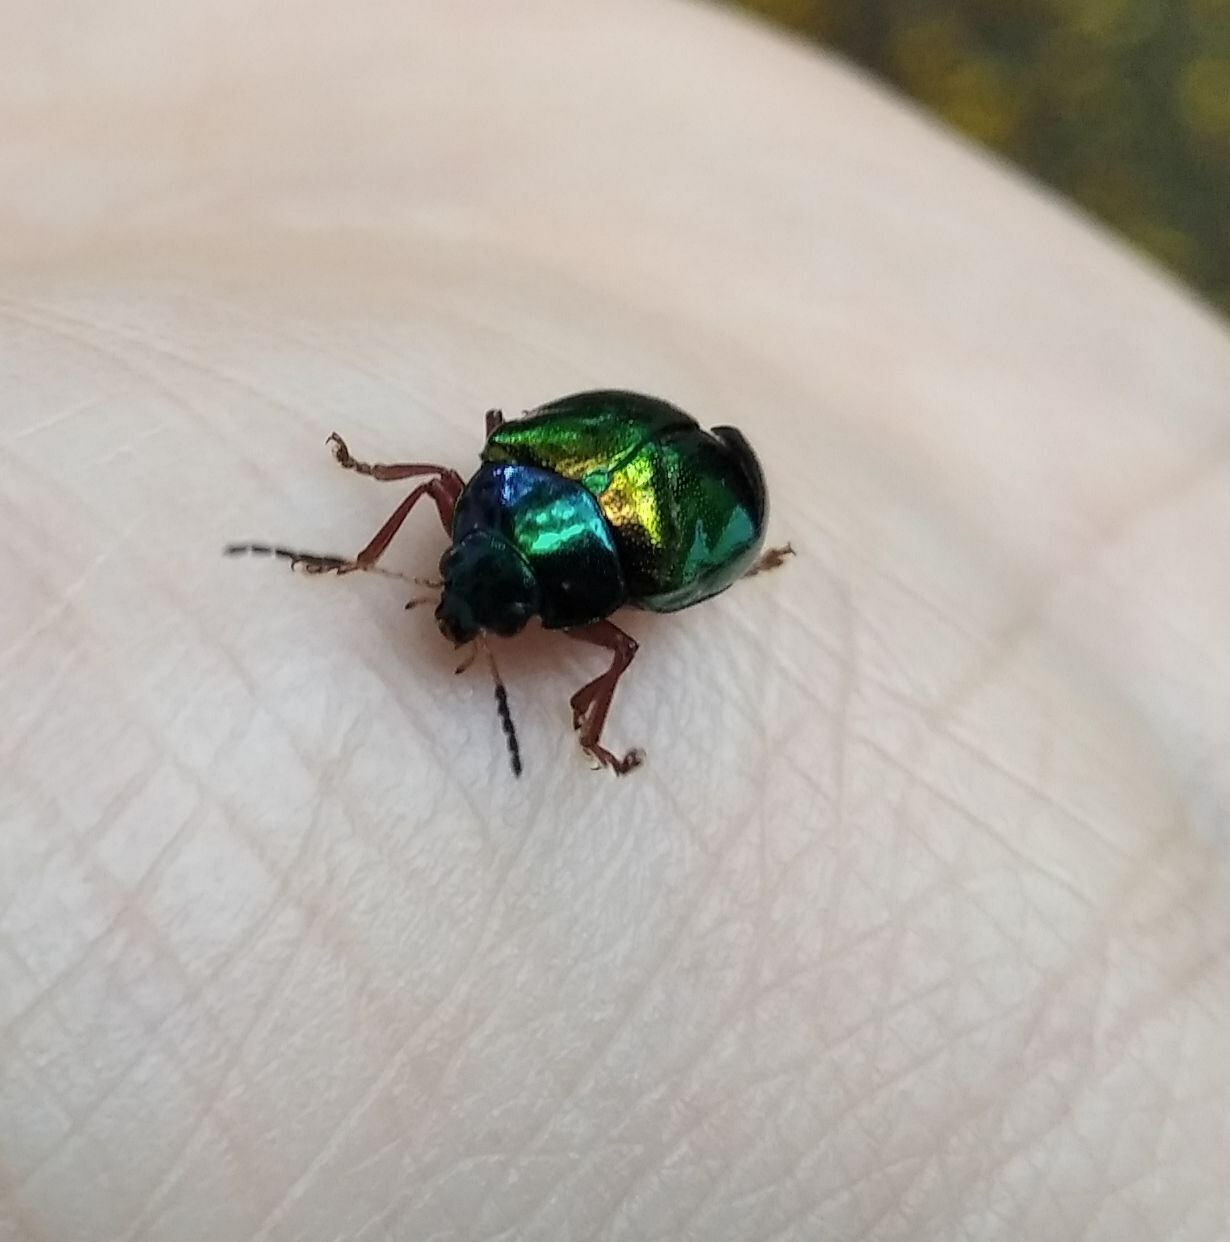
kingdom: Animalia
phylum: Arthropoda
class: Insecta
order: Coleoptera
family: Chrysomelidae
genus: Iphimeis
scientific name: Iphimeis
